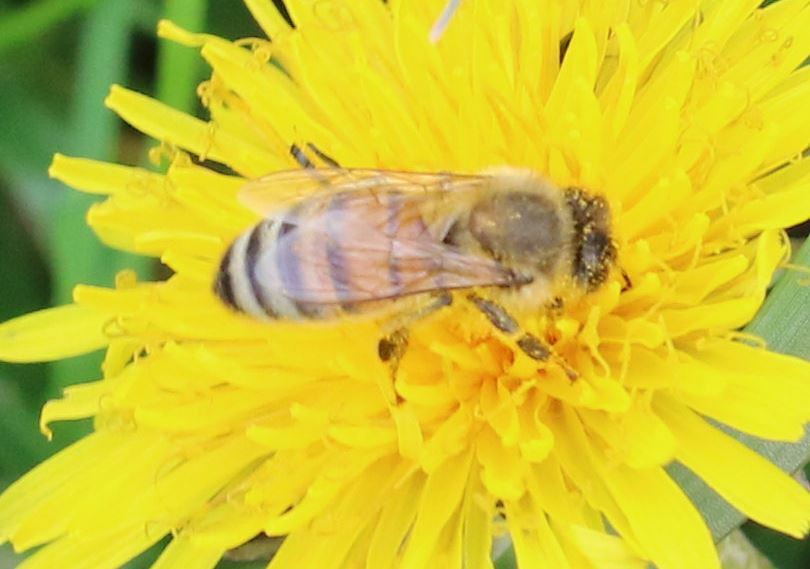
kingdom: Animalia
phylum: Arthropoda
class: Insecta
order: Hymenoptera
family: Apidae
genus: Apis
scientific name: Apis mellifera
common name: Honey bee
